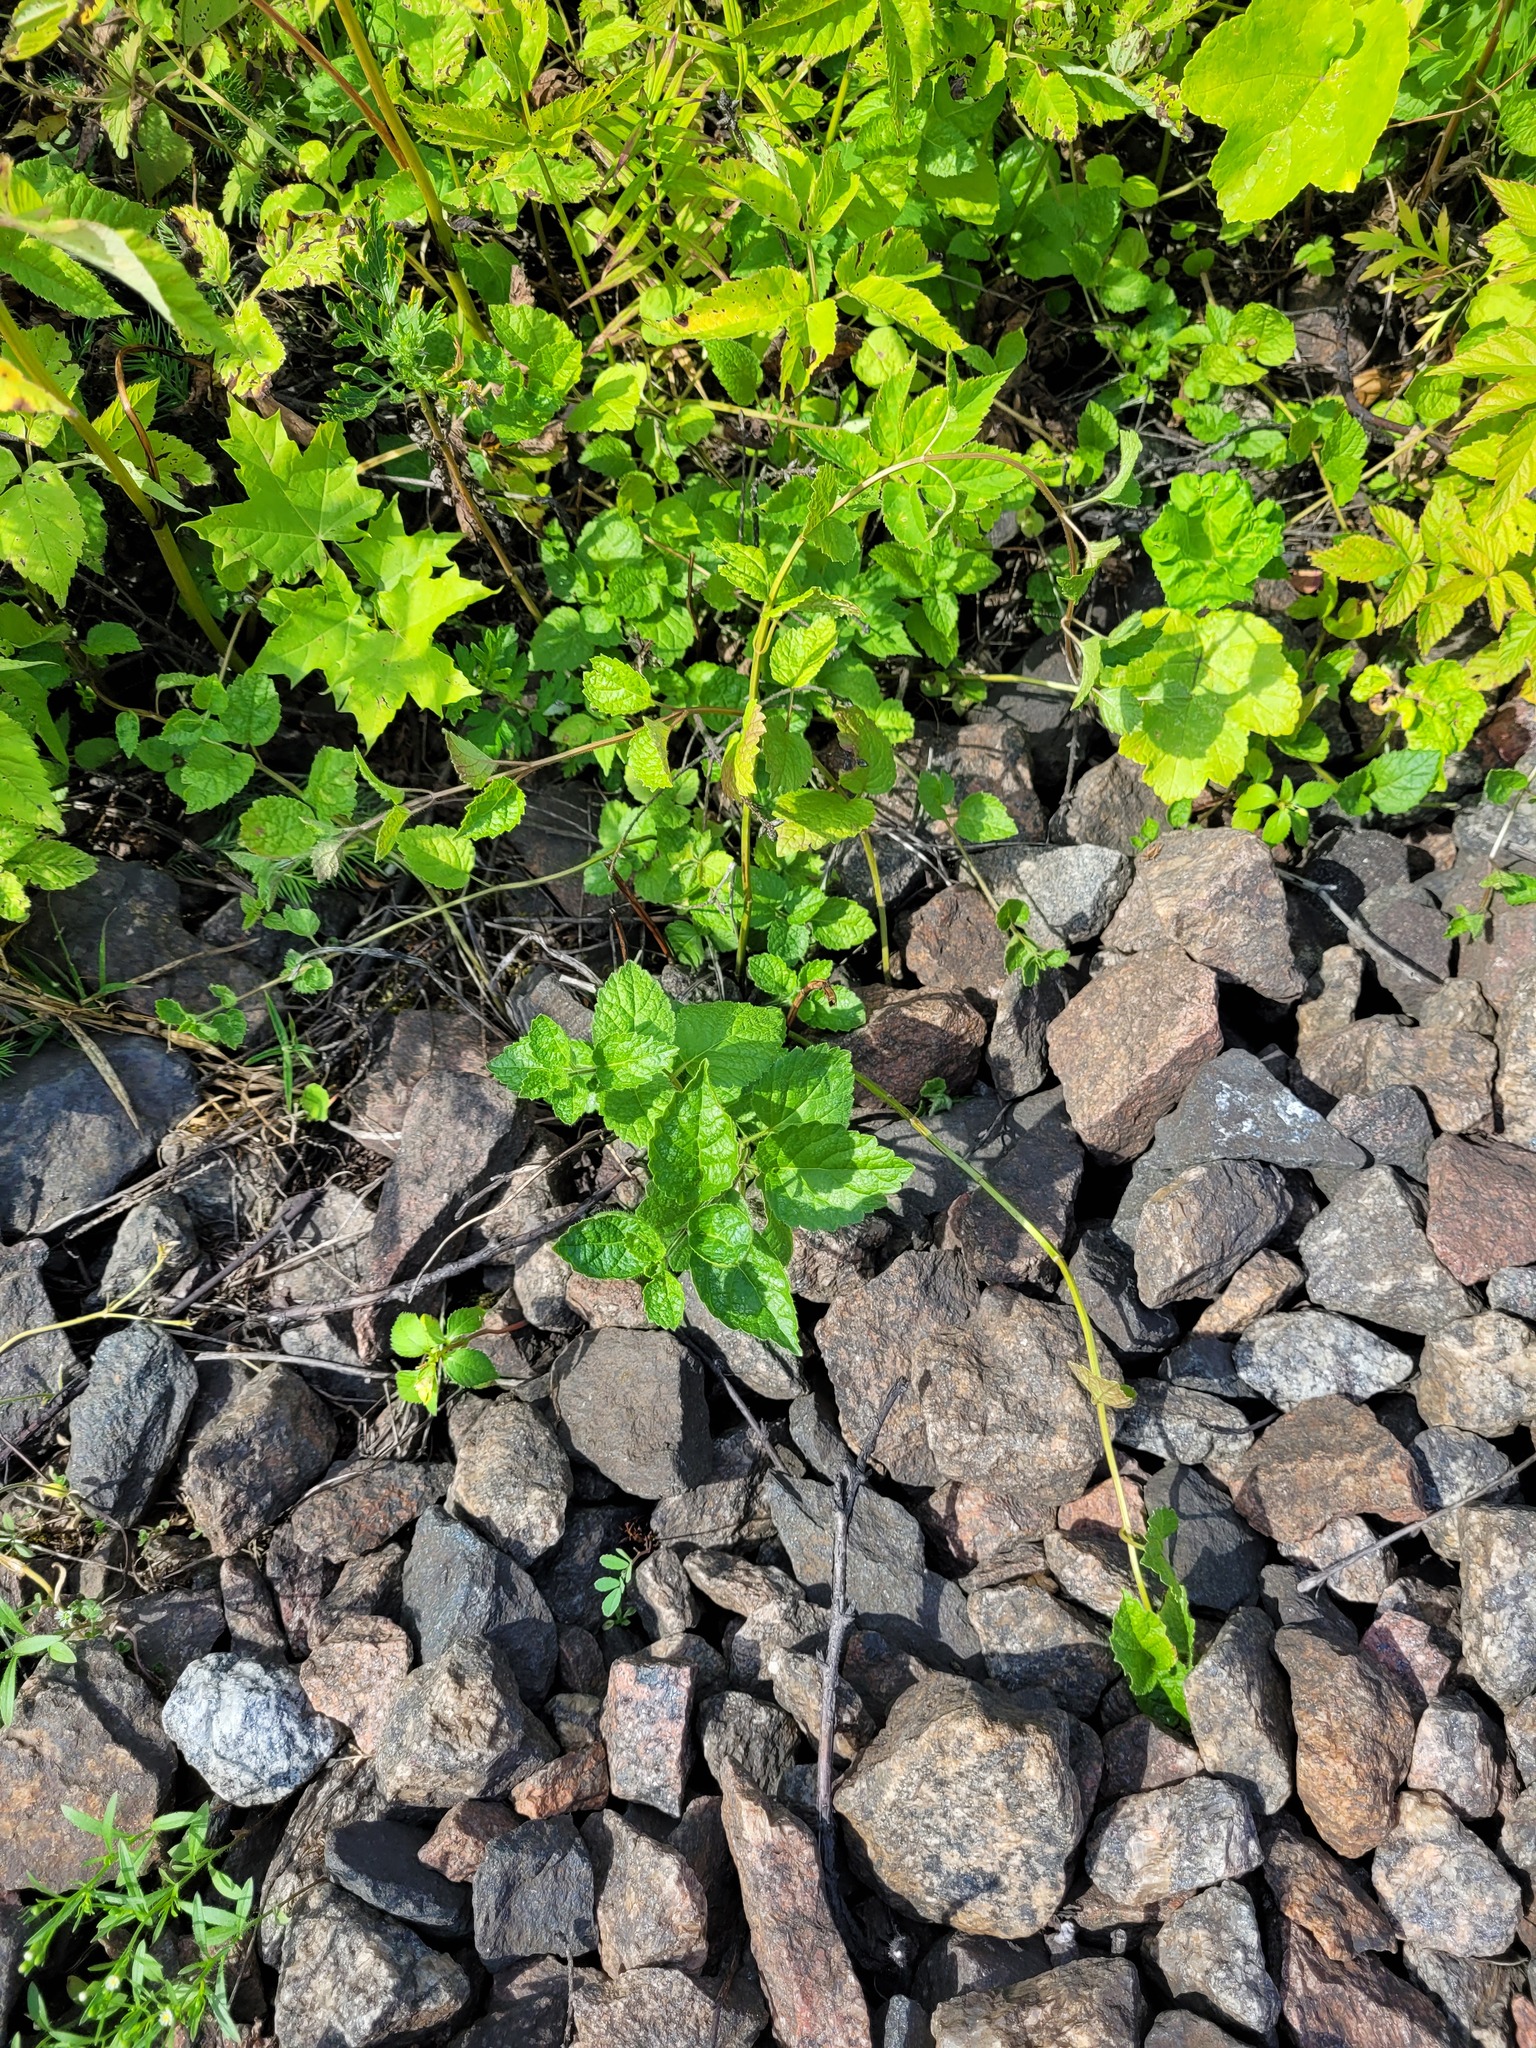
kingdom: Plantae
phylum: Tracheophyta
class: Magnoliopsida
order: Lamiales
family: Lamiaceae
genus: Lamium
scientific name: Lamium galeobdolon
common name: Yellow archangel
